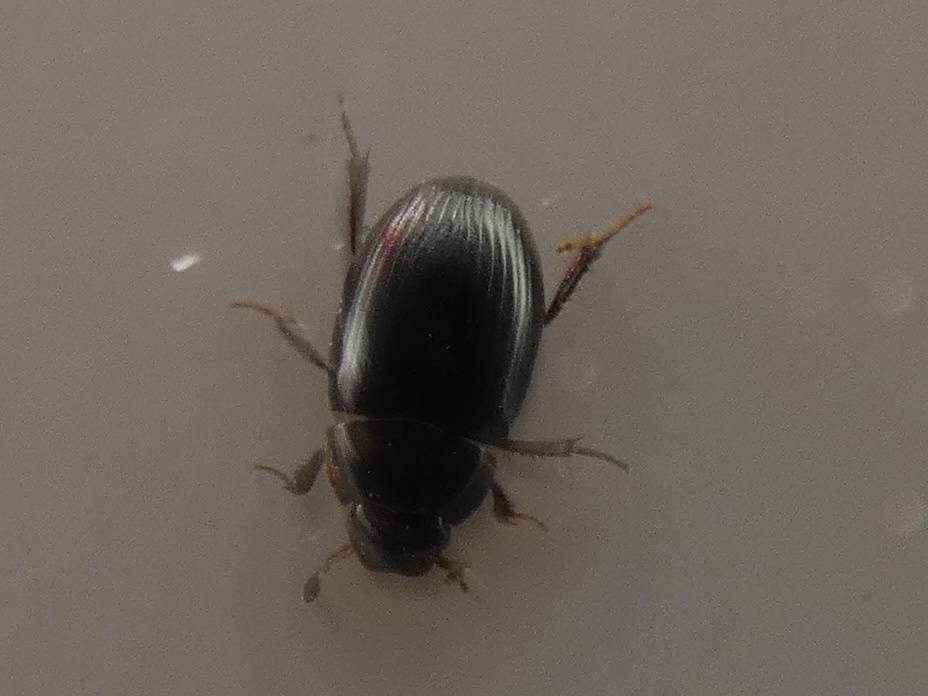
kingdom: Animalia
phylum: Arthropoda
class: Insecta
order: Coleoptera
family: Hydrophilidae
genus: Cercyon
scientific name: Cercyon littoralis
